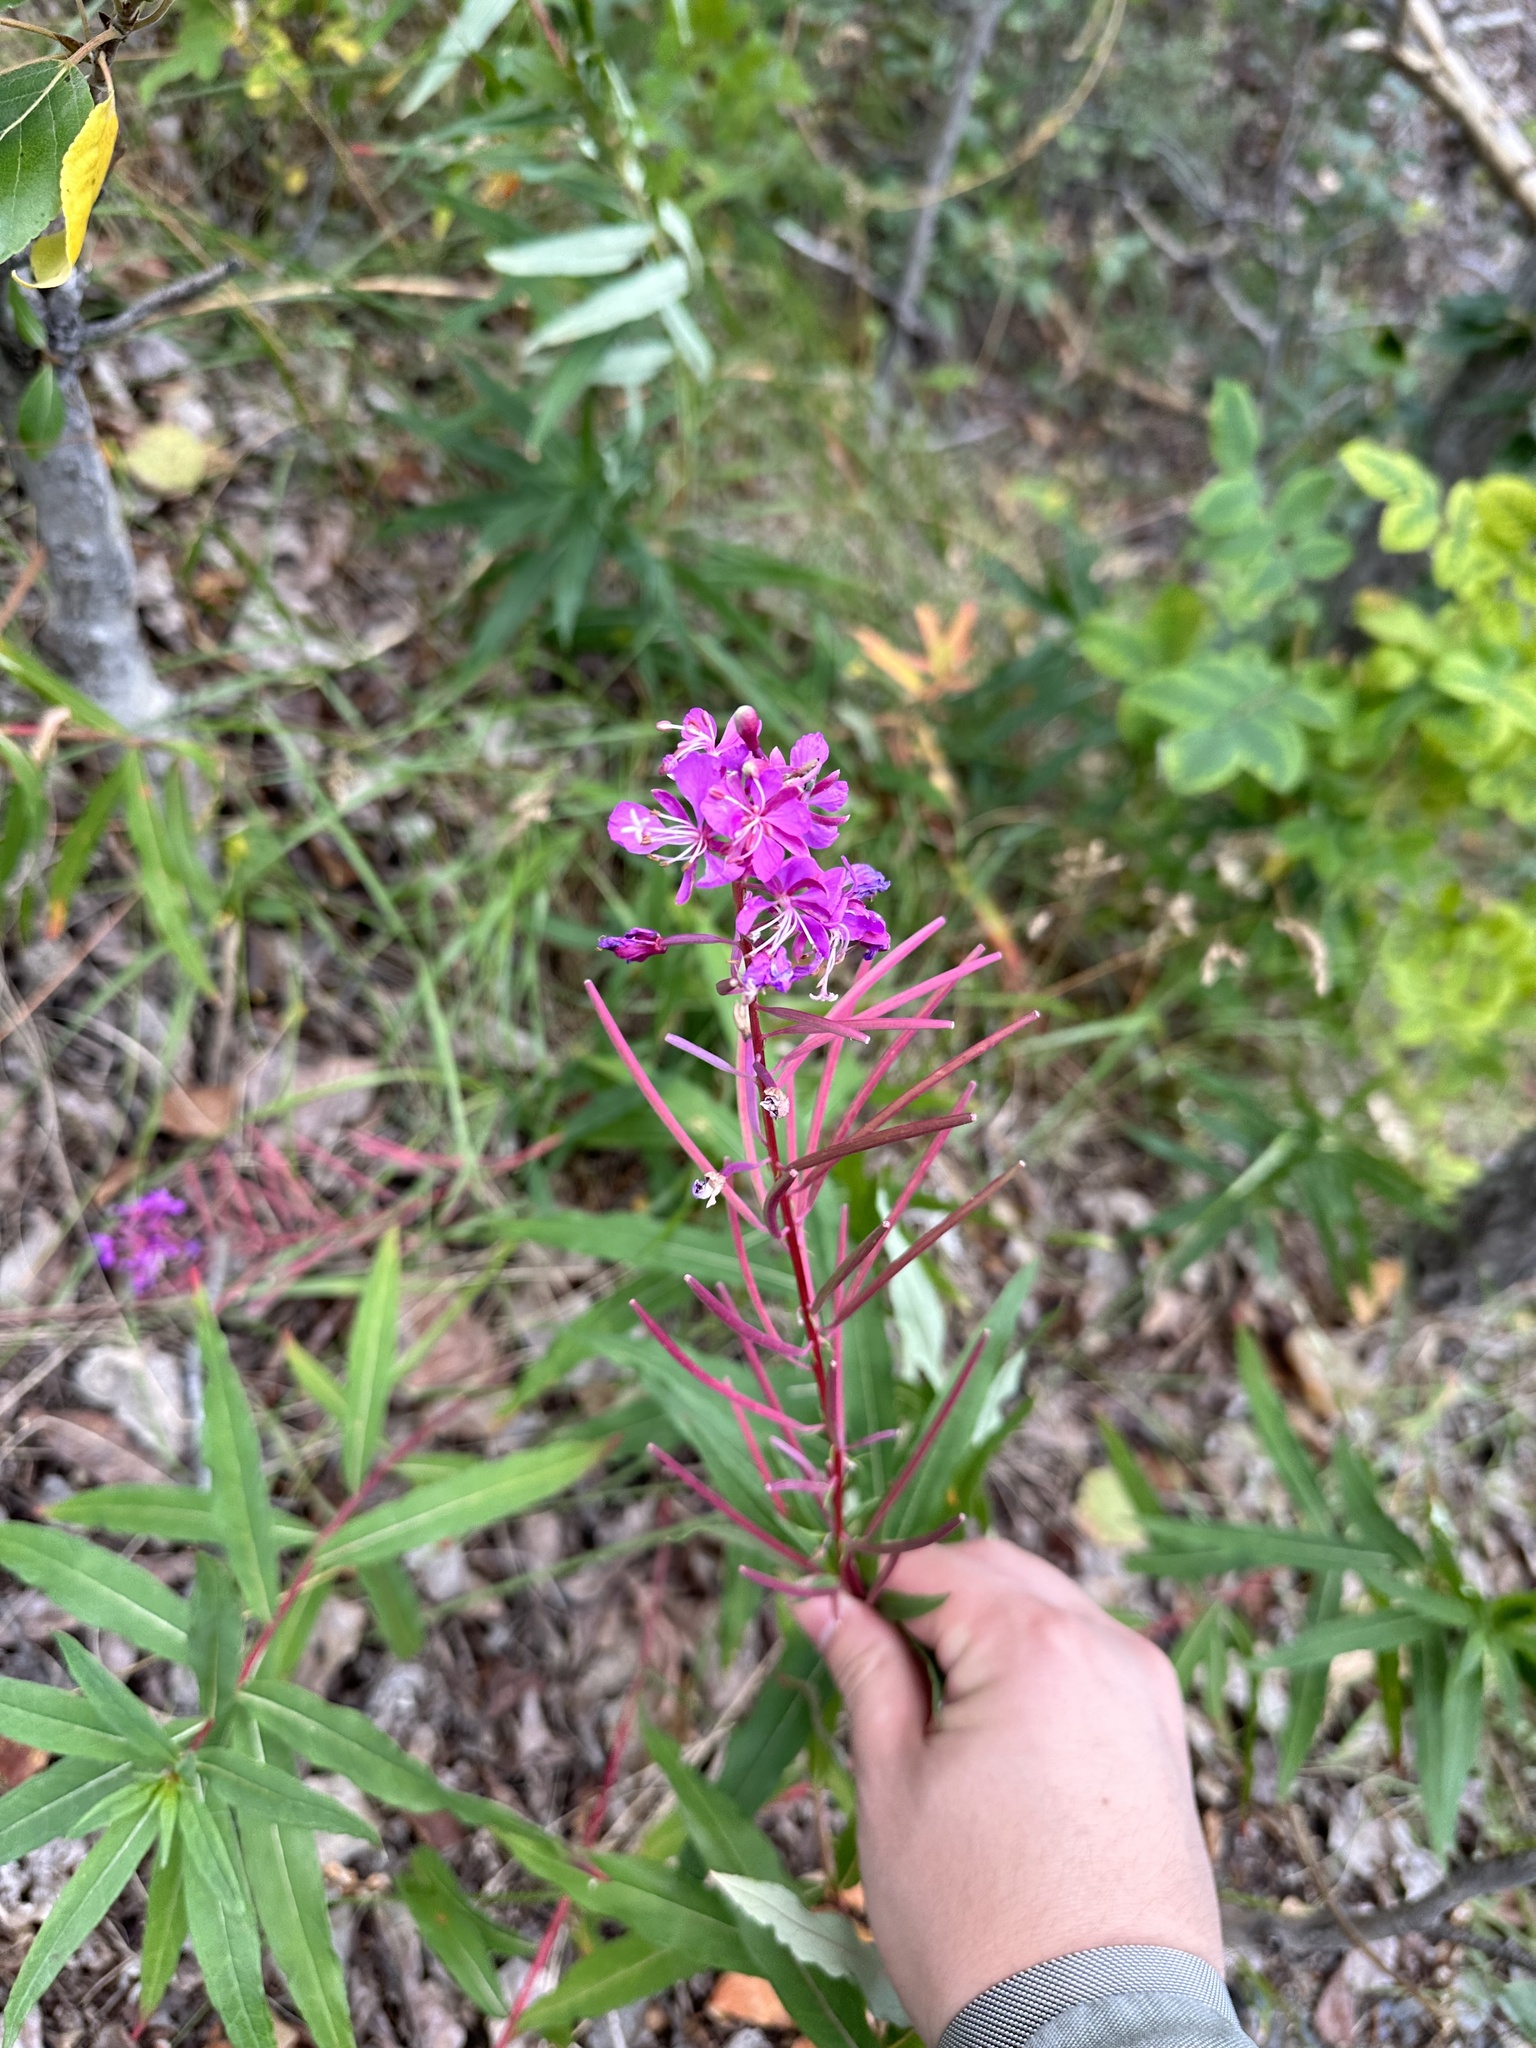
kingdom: Plantae
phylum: Tracheophyta
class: Magnoliopsida
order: Myrtales
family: Onagraceae
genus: Chamaenerion
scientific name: Chamaenerion angustifolium
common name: Fireweed
